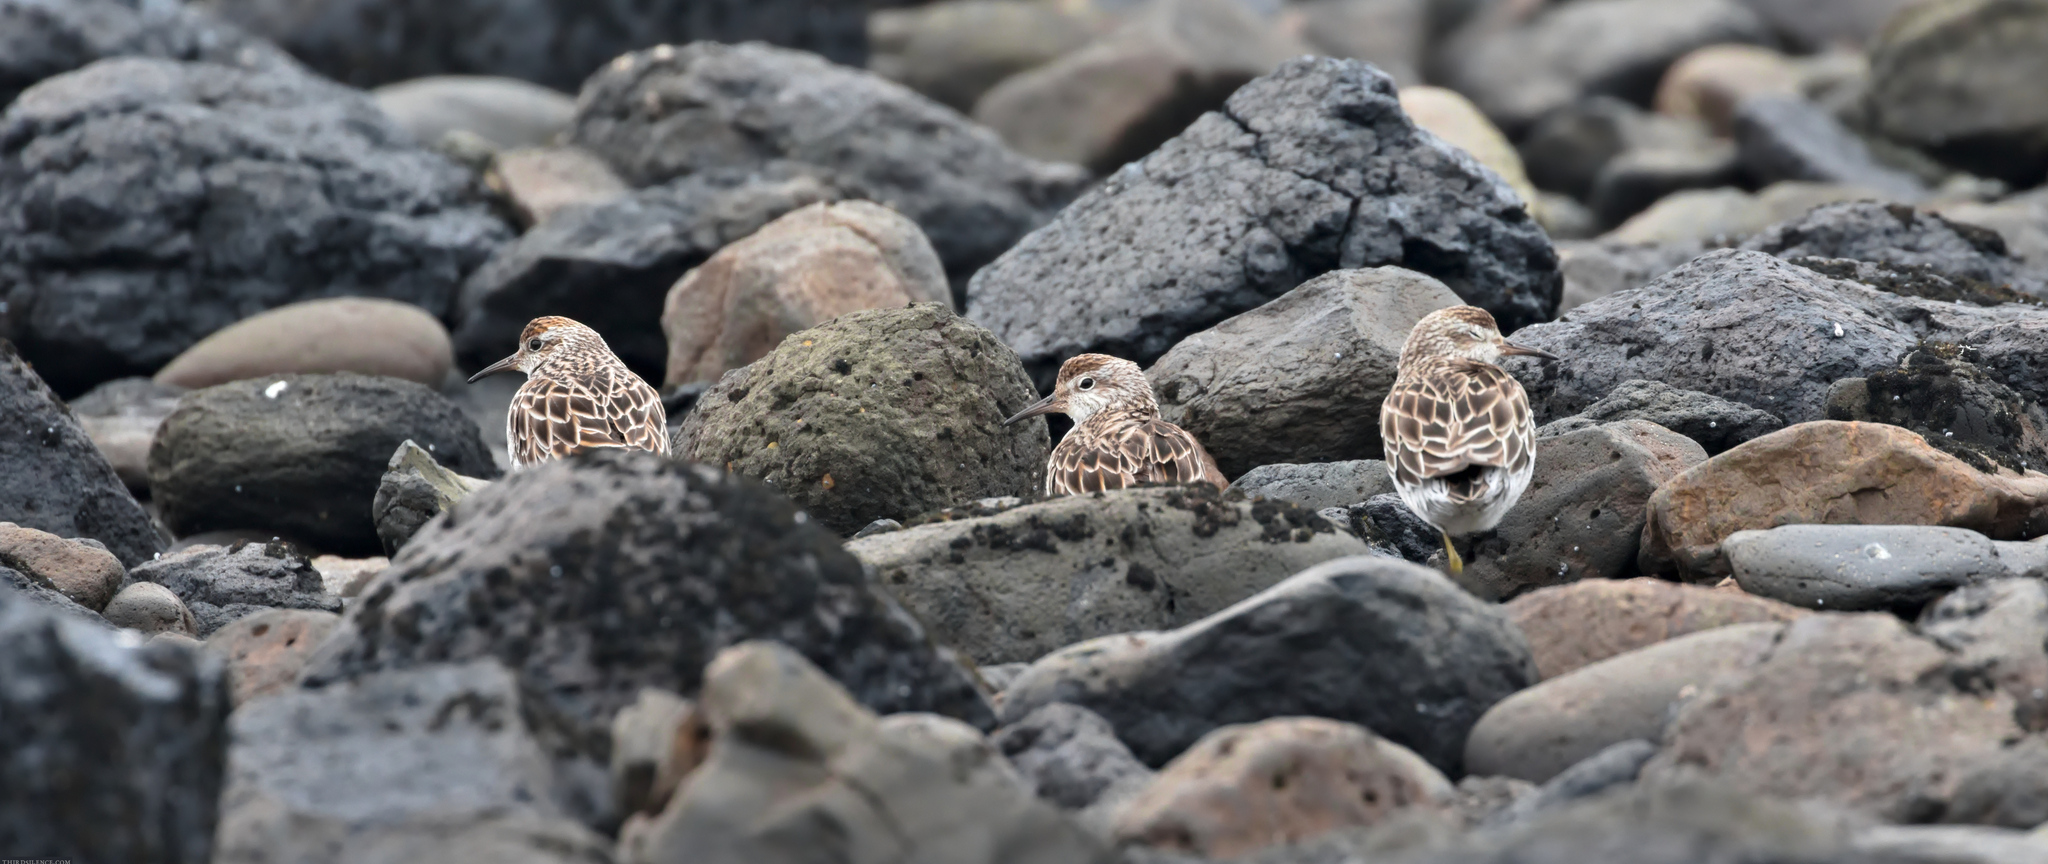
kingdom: Animalia
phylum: Chordata
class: Aves
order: Charadriiformes
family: Scolopacidae
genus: Calidris
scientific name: Calidris acuminata
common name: Sharp-tailed sandpiper
